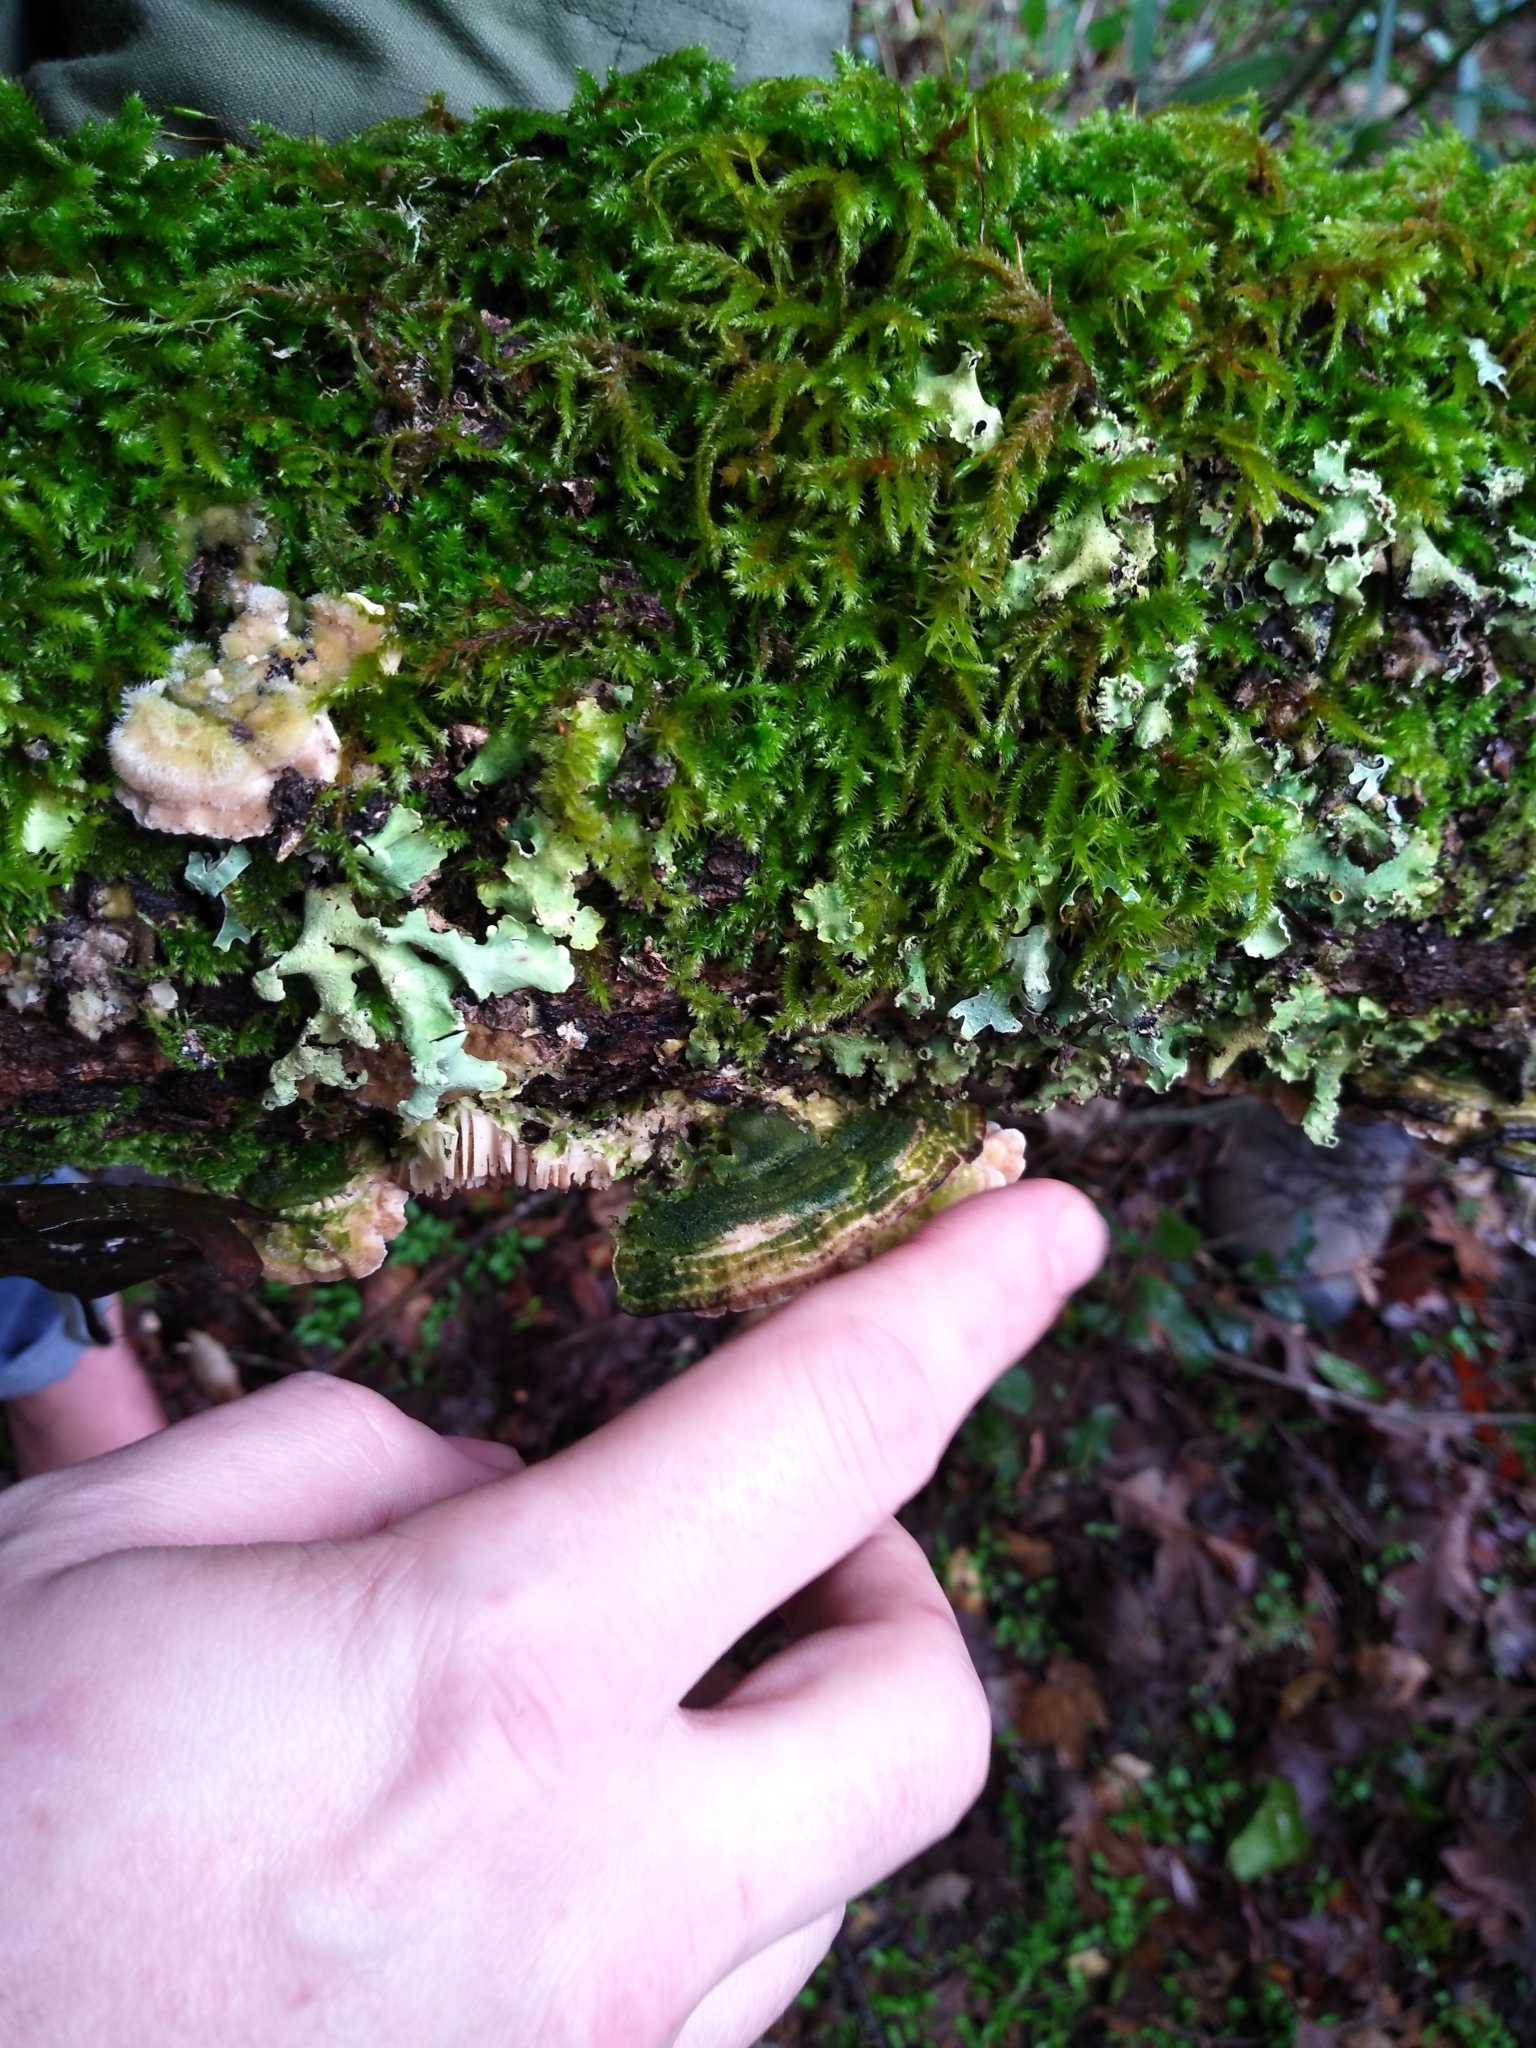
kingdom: Fungi
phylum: Basidiomycota
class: Agaricomycetes
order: Polyporales
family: Polyporaceae
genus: Lenzites
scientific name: Lenzites betulinus
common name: Birch mazegill
